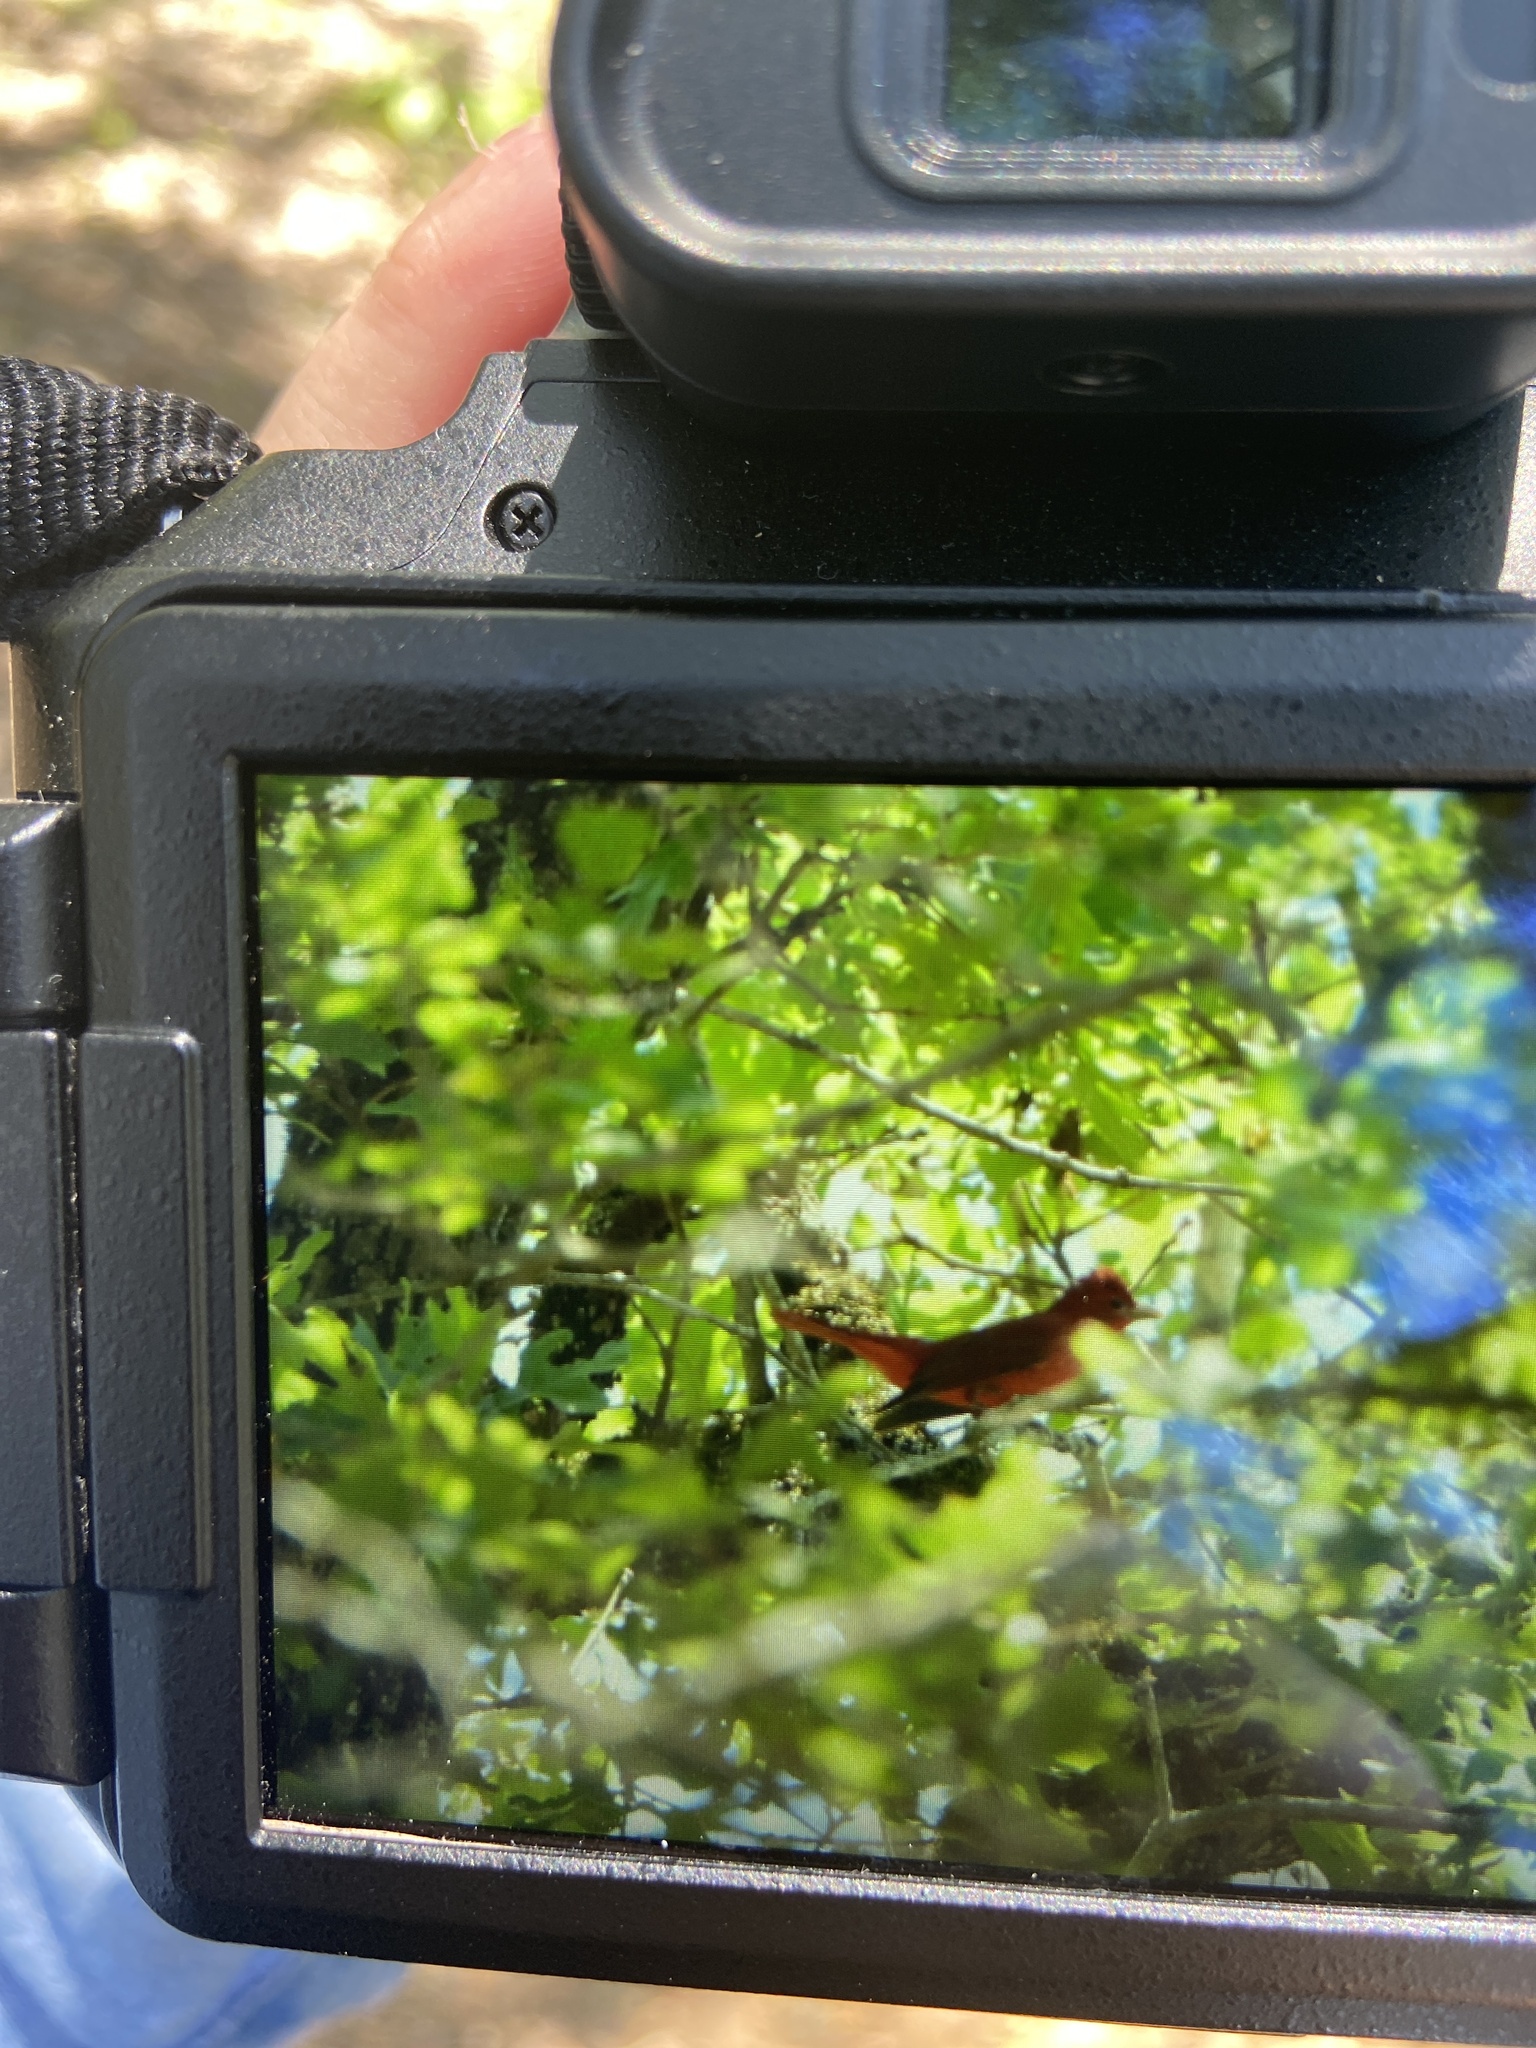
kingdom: Animalia
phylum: Chordata
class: Aves
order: Passeriformes
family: Cardinalidae
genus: Piranga
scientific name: Piranga rubra
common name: Summer tanager
